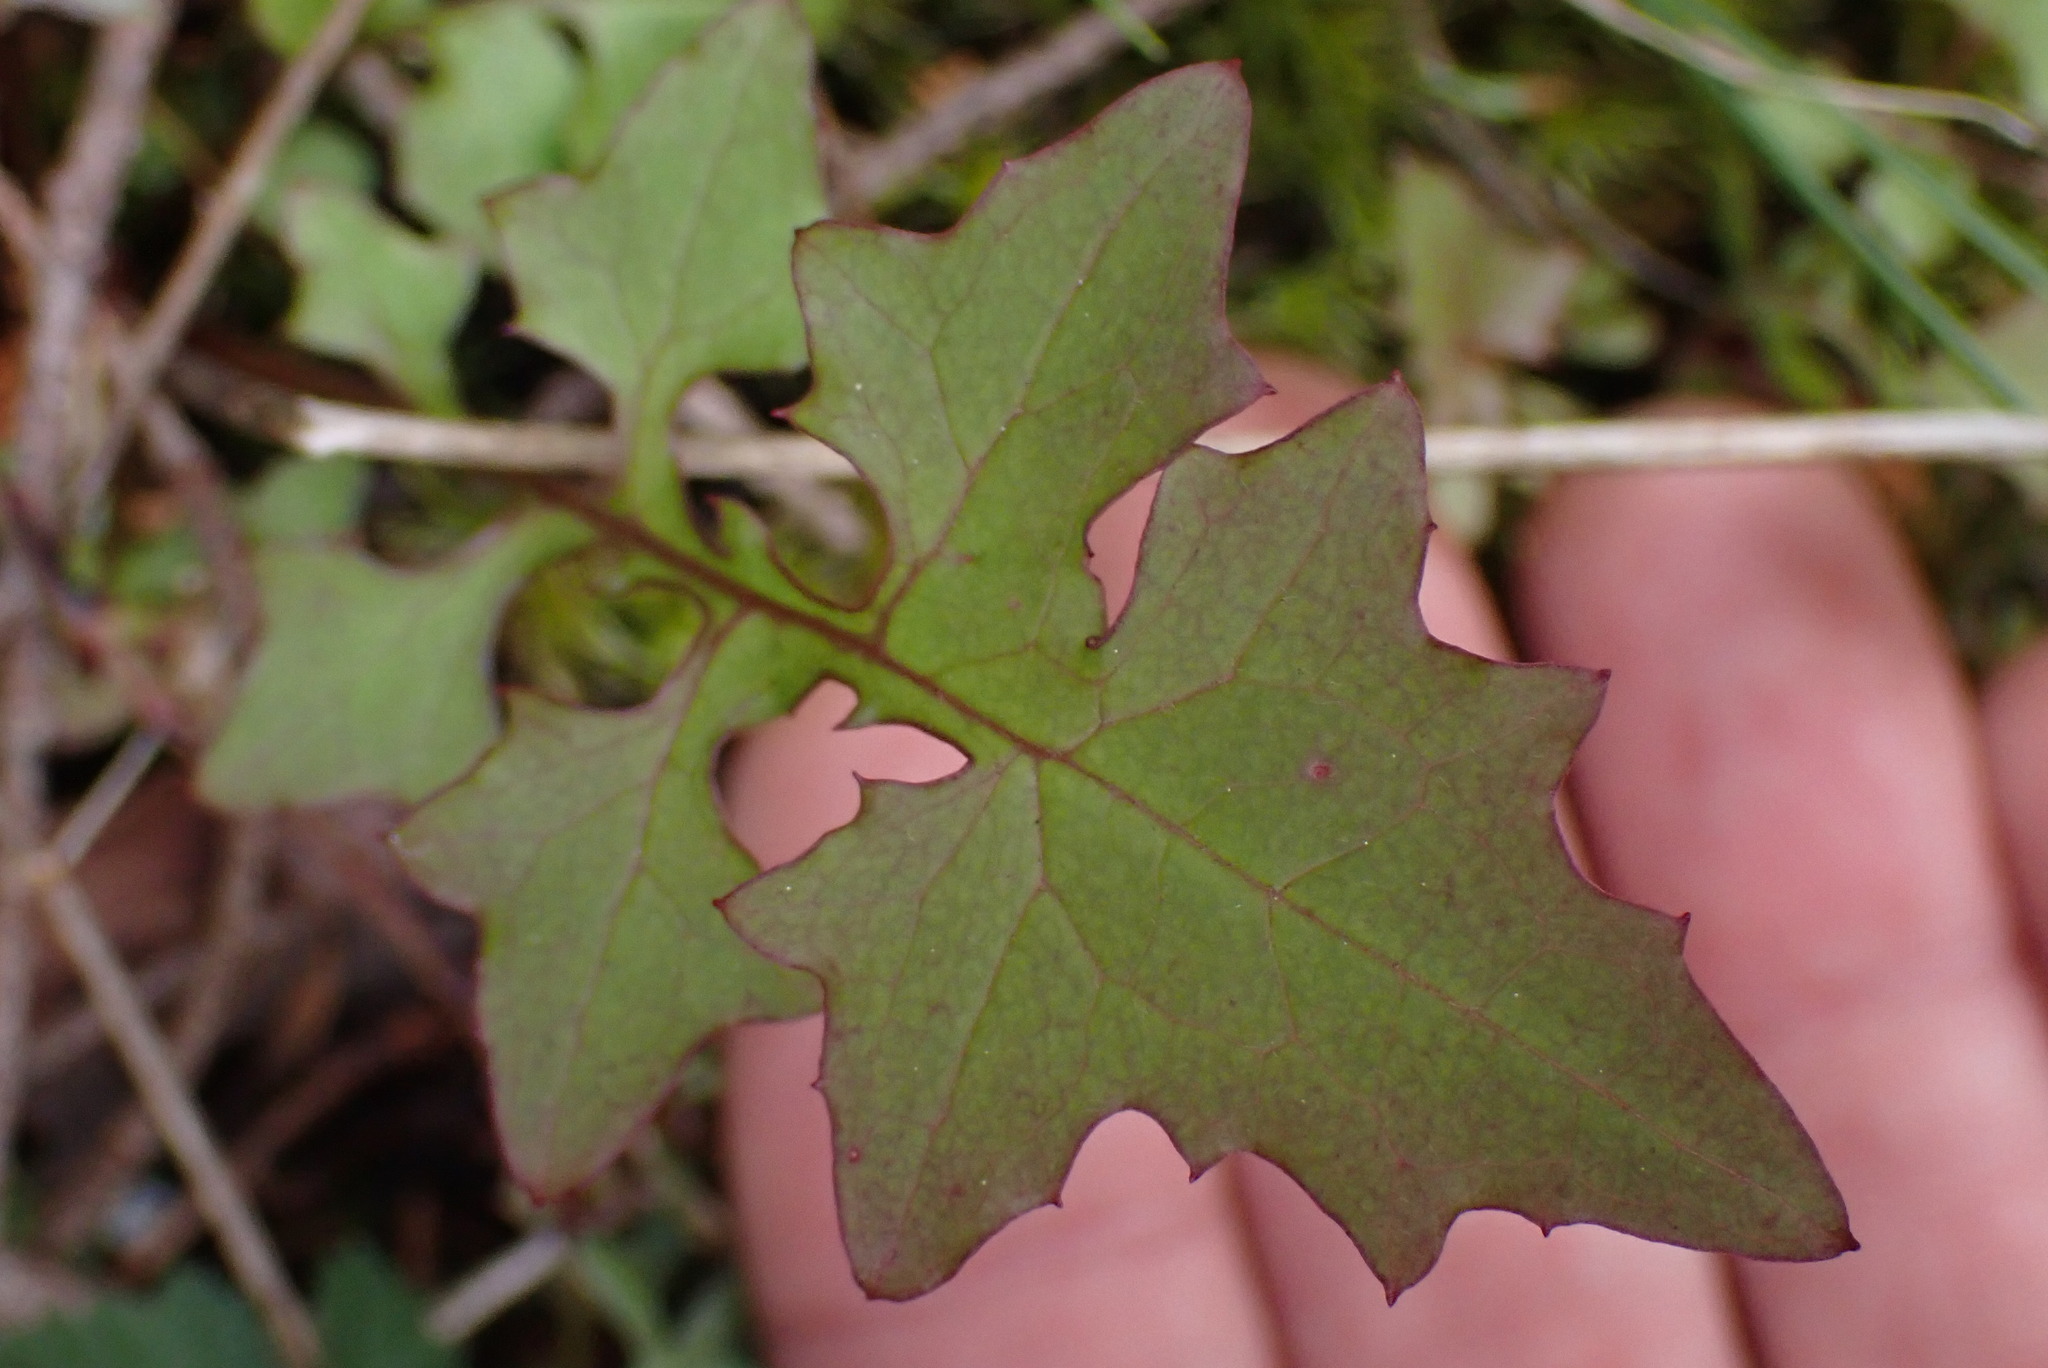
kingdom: Plantae
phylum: Tracheophyta
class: Magnoliopsida
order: Asterales
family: Asteraceae
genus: Mycelis
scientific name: Mycelis muralis
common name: Wall lettuce
